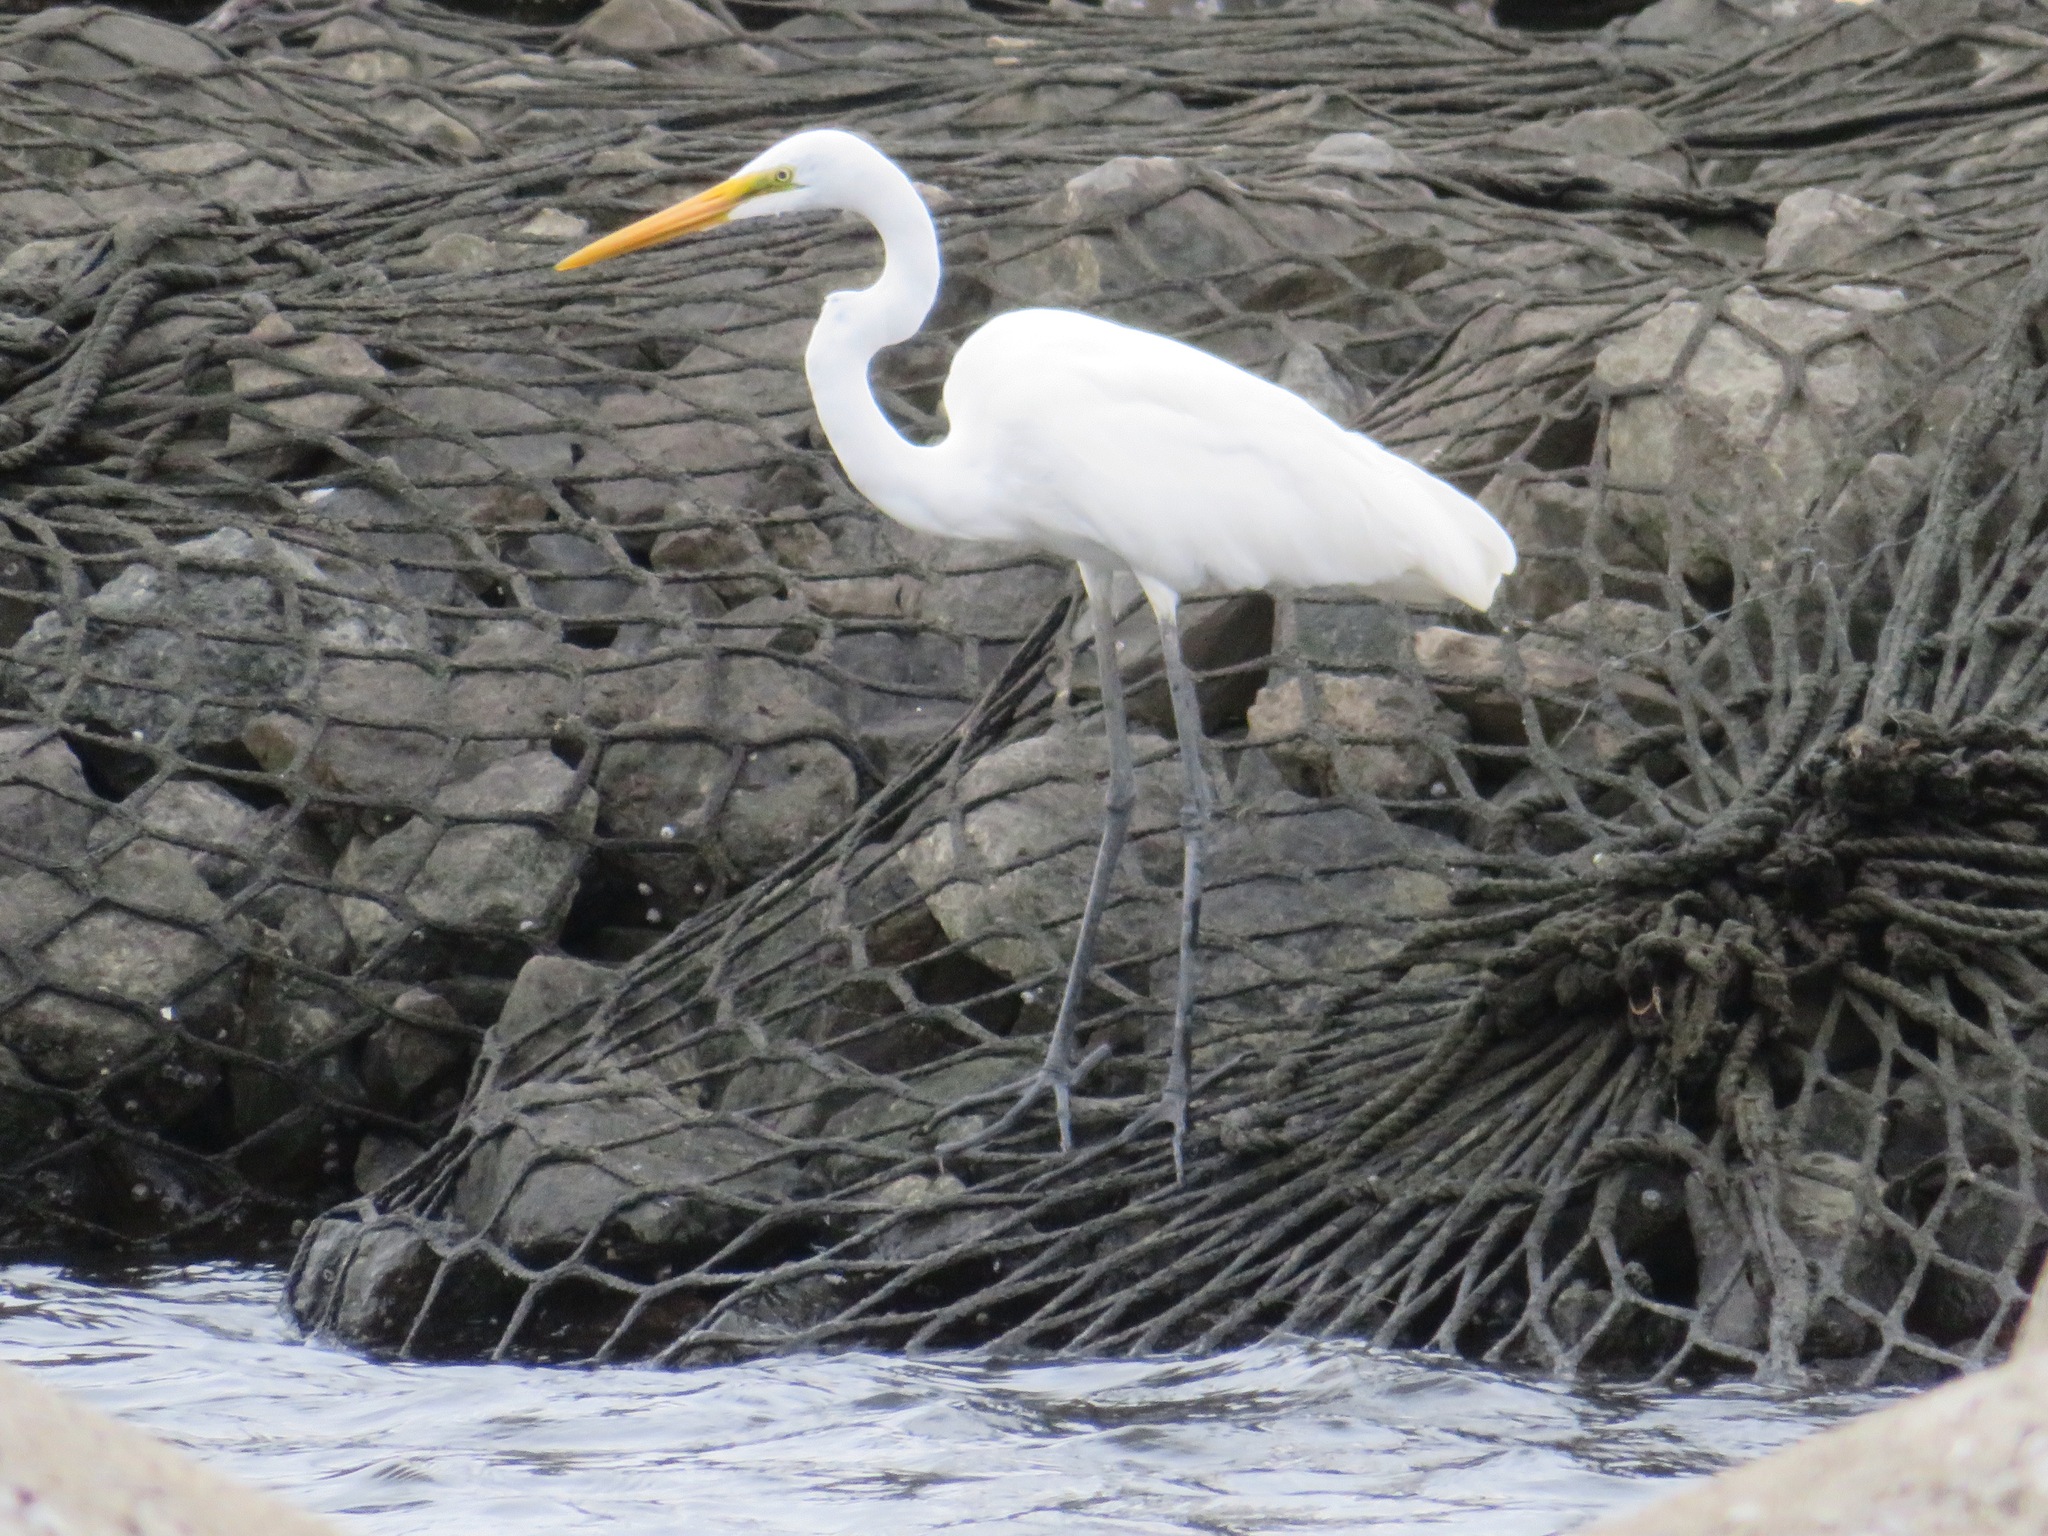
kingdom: Animalia
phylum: Chordata
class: Aves
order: Pelecaniformes
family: Ardeidae
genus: Ardea
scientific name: Ardea alba
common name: Great egret
